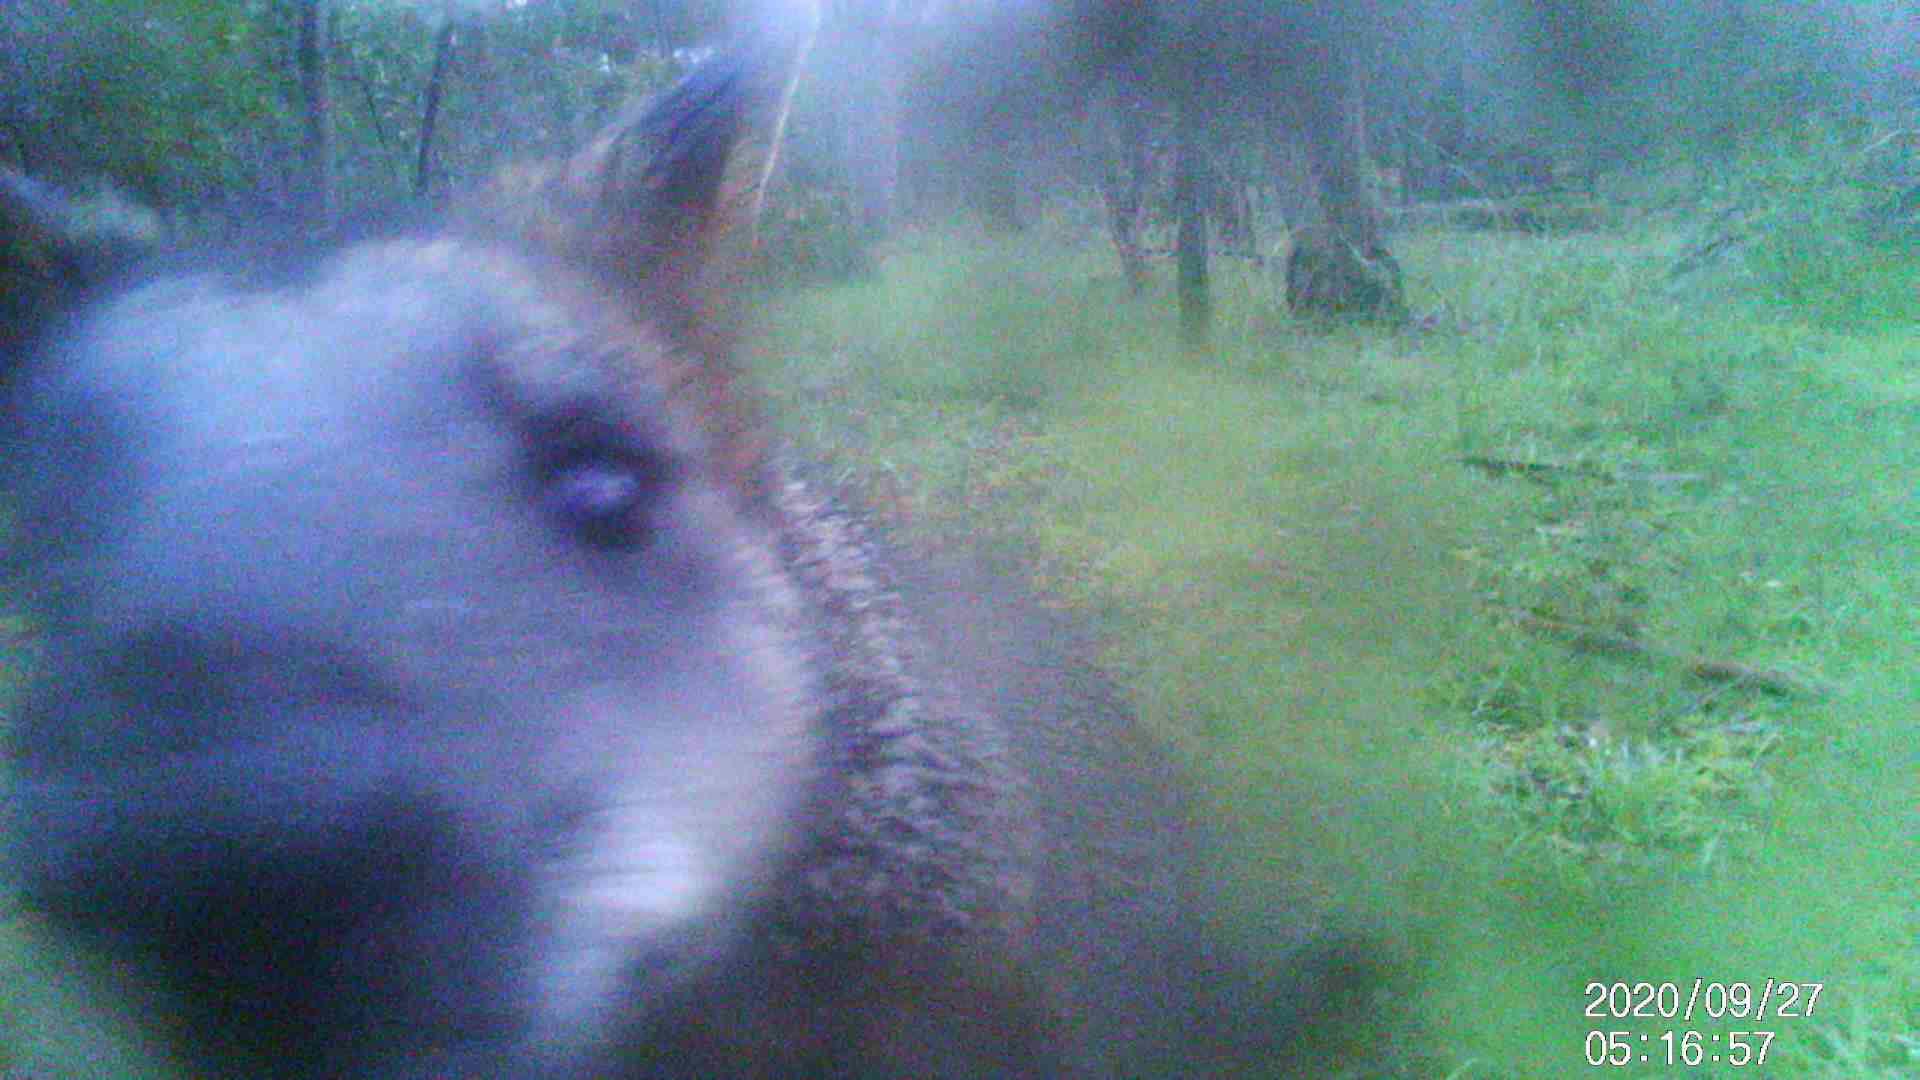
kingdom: Animalia
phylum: Chordata
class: Mammalia
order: Diprotodontia
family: Macropodidae
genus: Wallabia
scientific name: Wallabia bicolor
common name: Swamp wallaby
